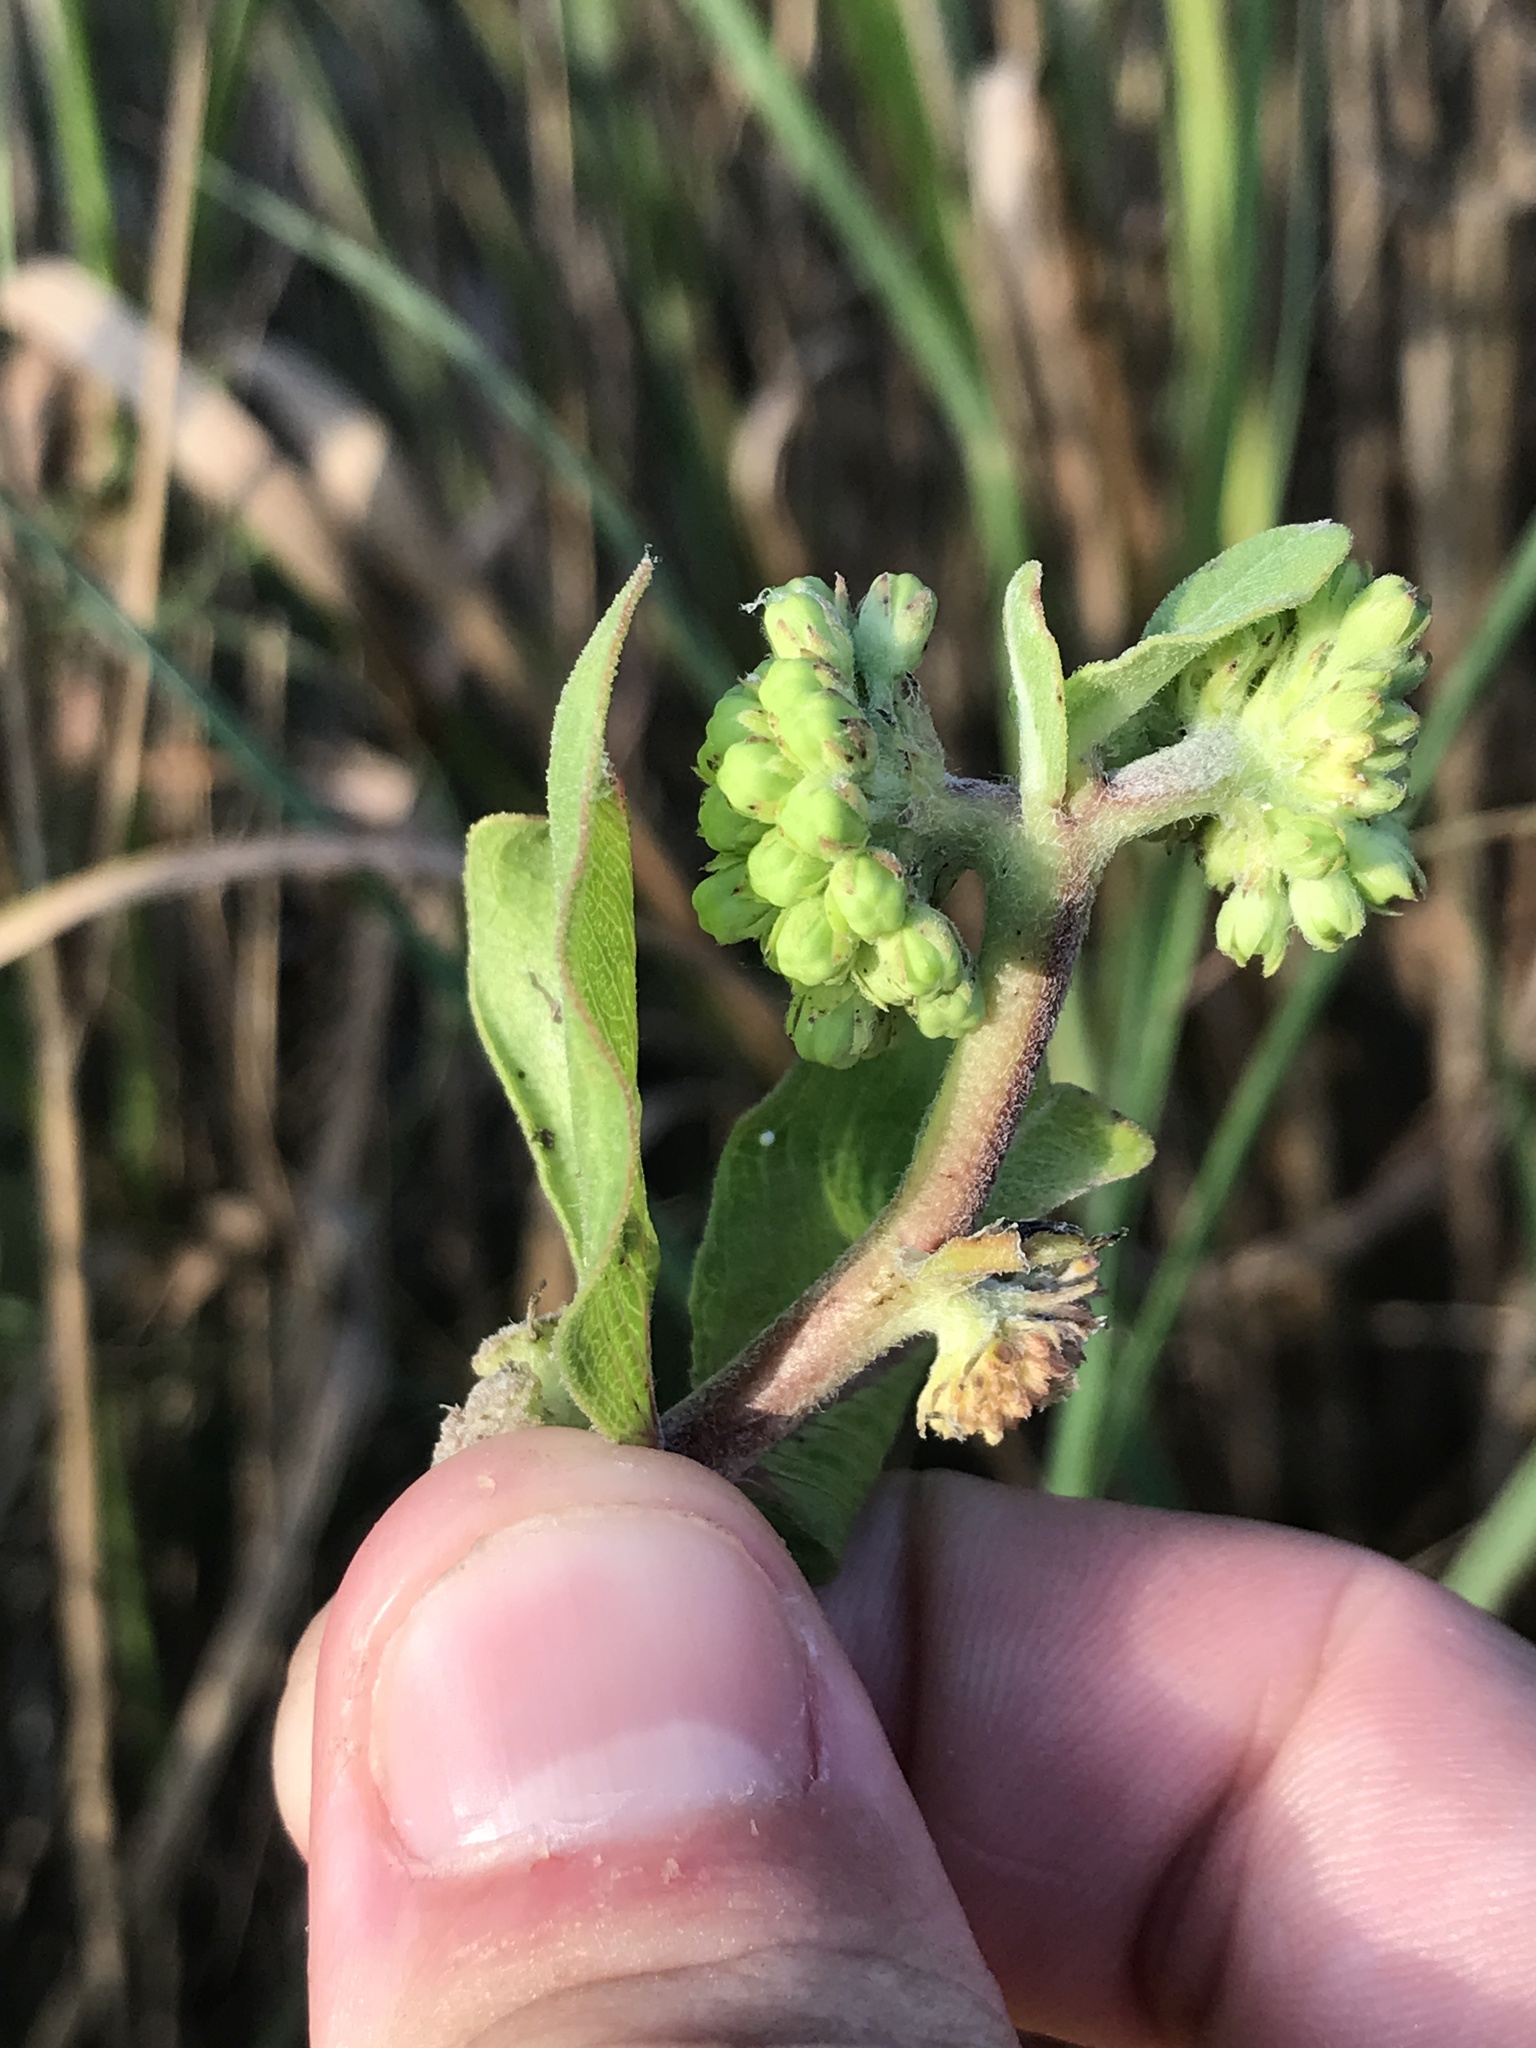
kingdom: Plantae
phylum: Tracheophyta
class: Magnoliopsida
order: Gentianales
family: Apocynaceae
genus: Asclepias
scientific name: Asclepias viridiflora
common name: Green comet milkweed
